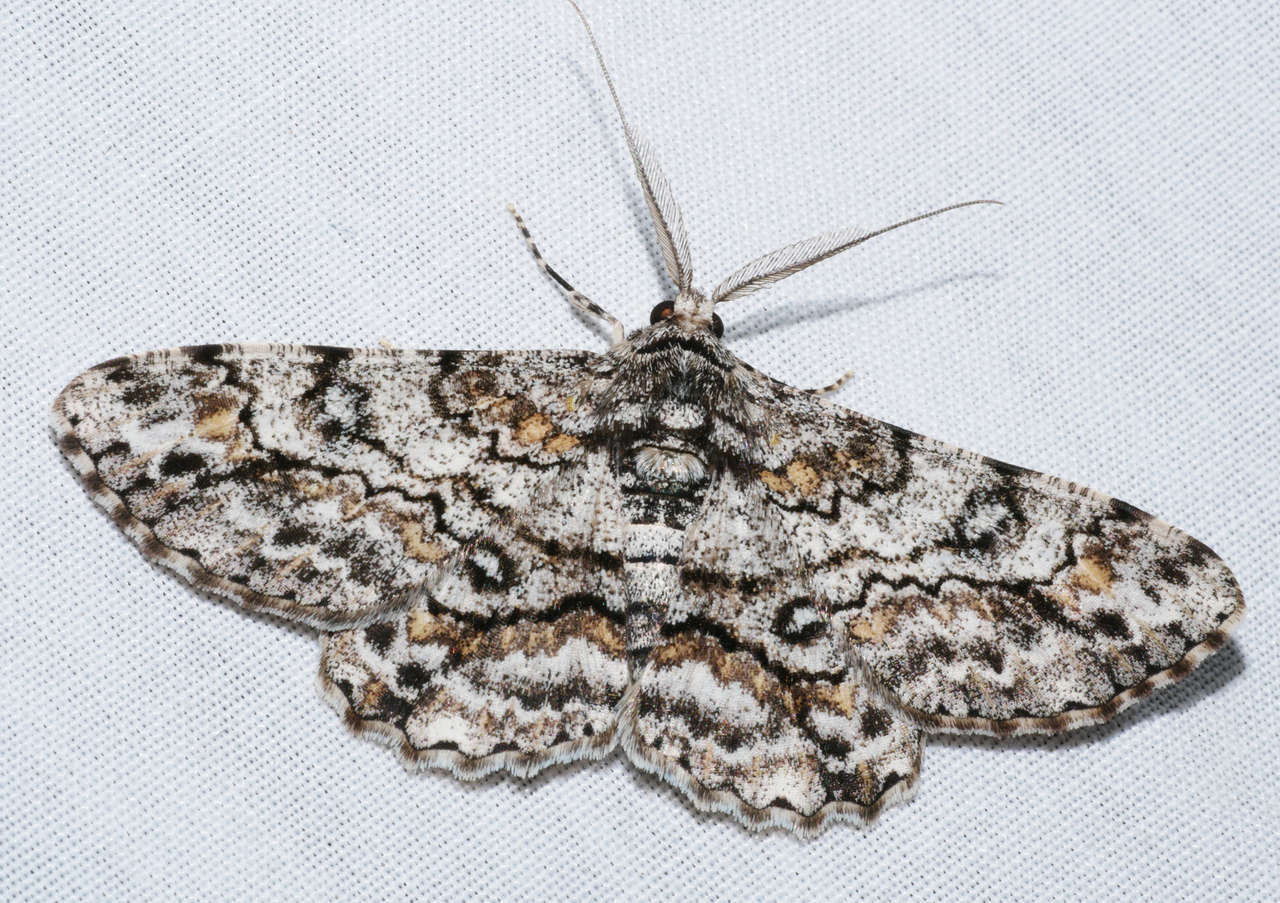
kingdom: Animalia
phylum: Arthropoda
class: Insecta
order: Lepidoptera
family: Geometridae
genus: Cleora
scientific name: Cleora
